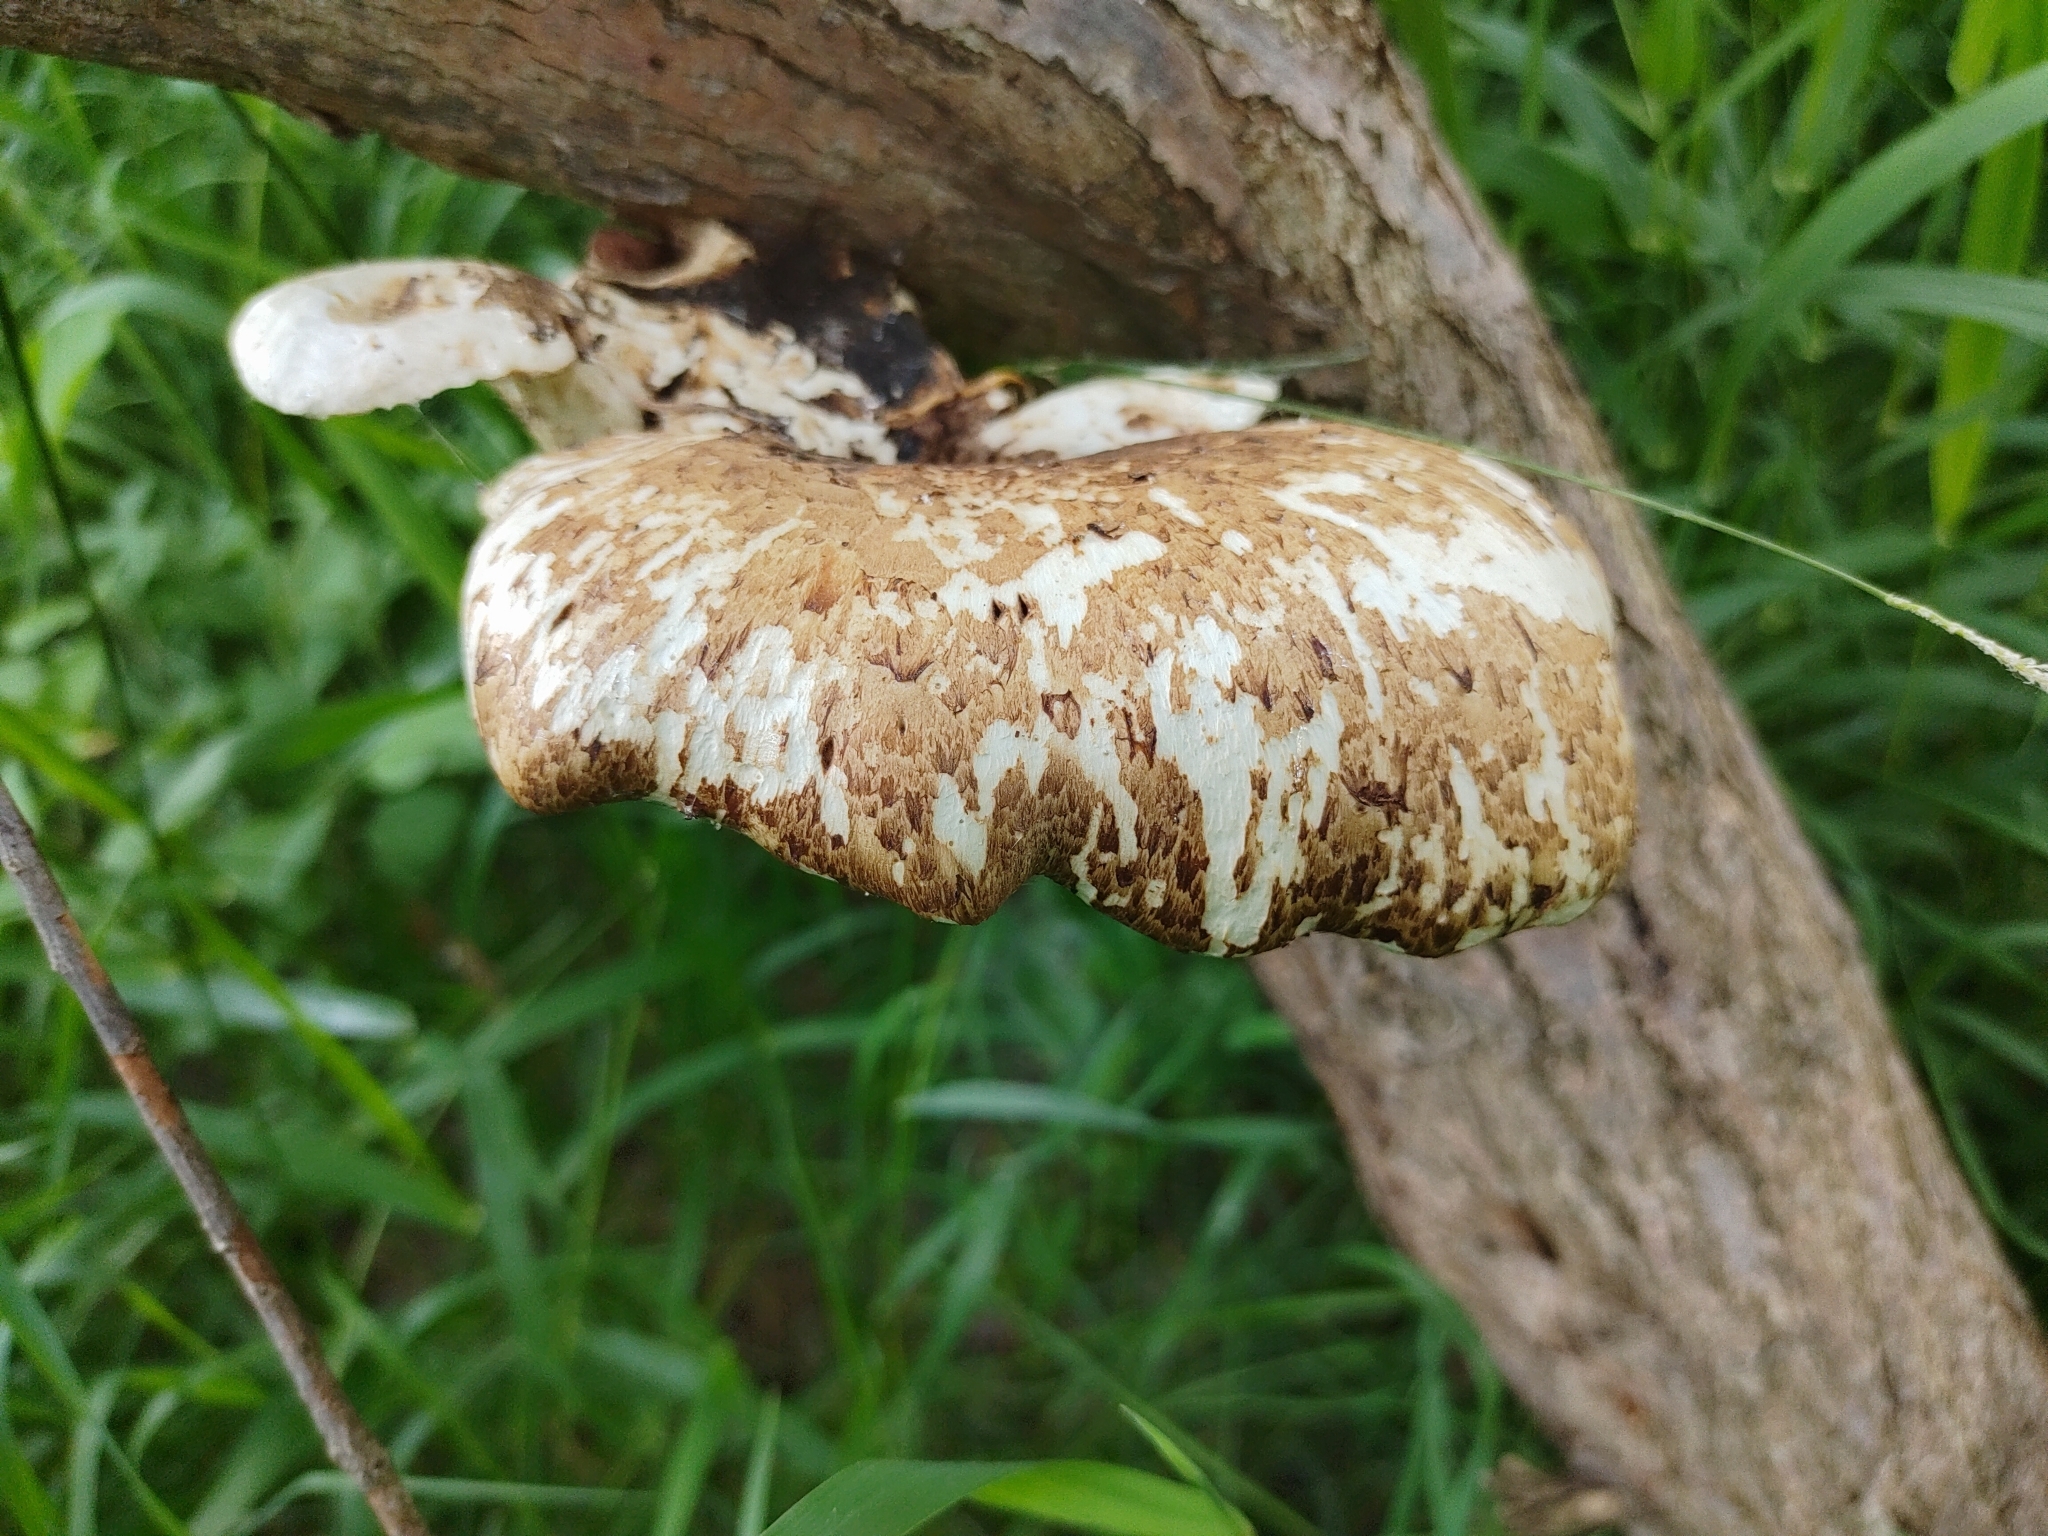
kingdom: Fungi
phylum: Basidiomycota
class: Agaricomycetes
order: Polyporales
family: Polyporaceae
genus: Cerioporus
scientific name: Cerioporus squamosus
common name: Dryad's saddle
